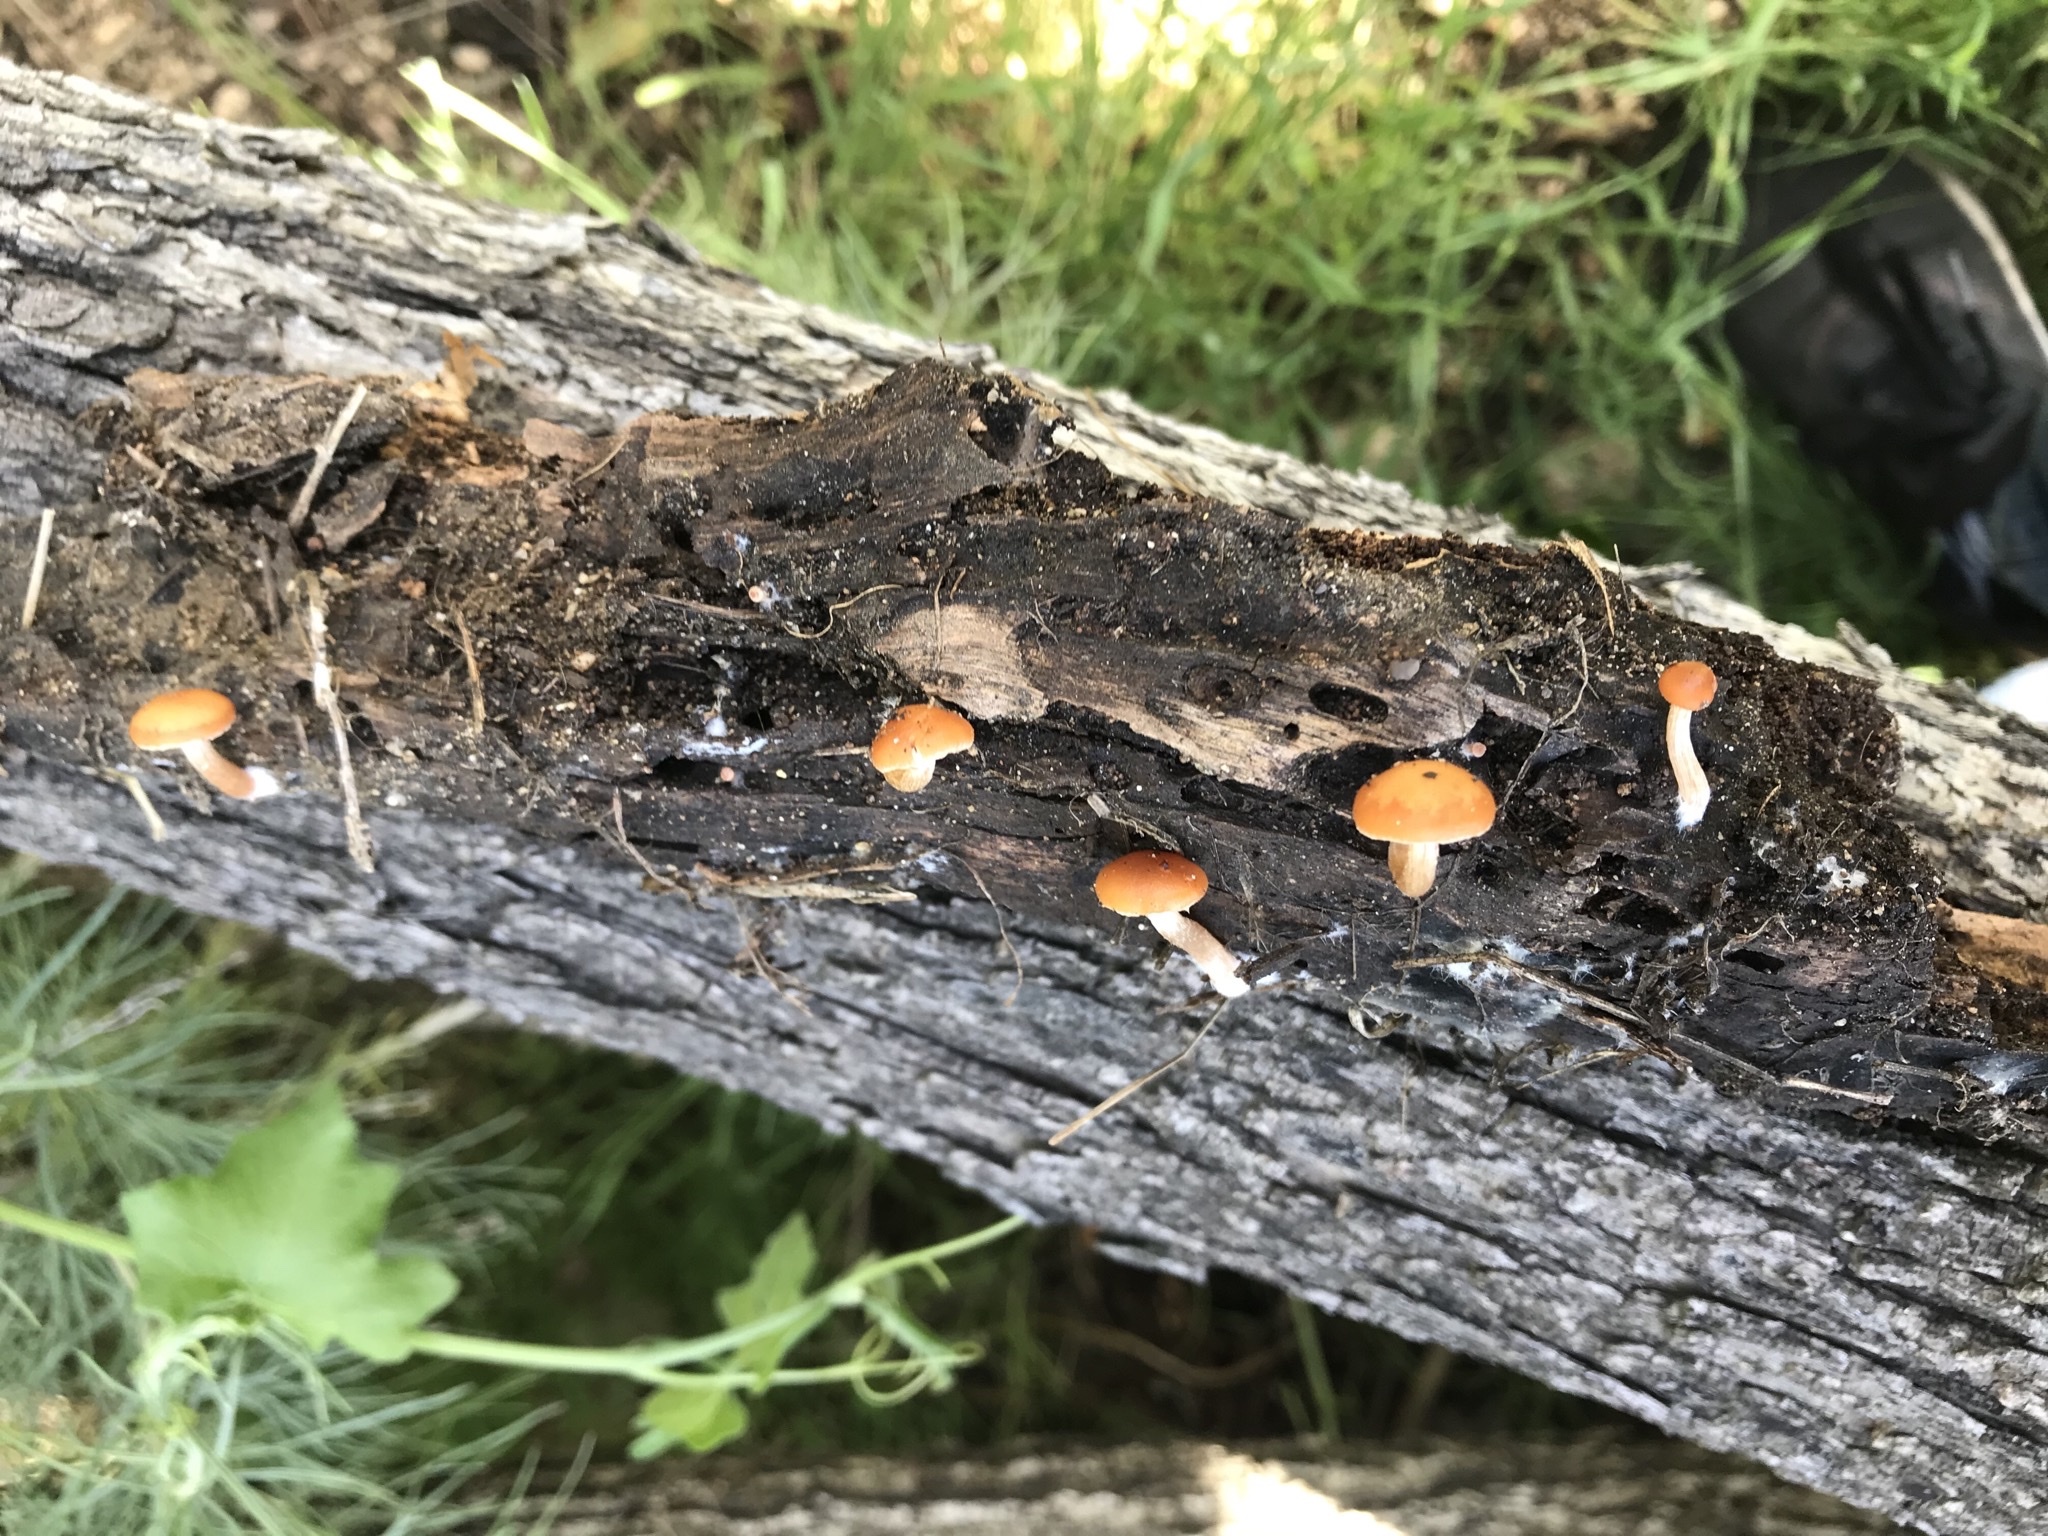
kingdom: Fungi
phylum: Basidiomycota
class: Agaricomycetes
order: Agaricales
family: Tubariaceae
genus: Tubaria
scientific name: Tubaria
